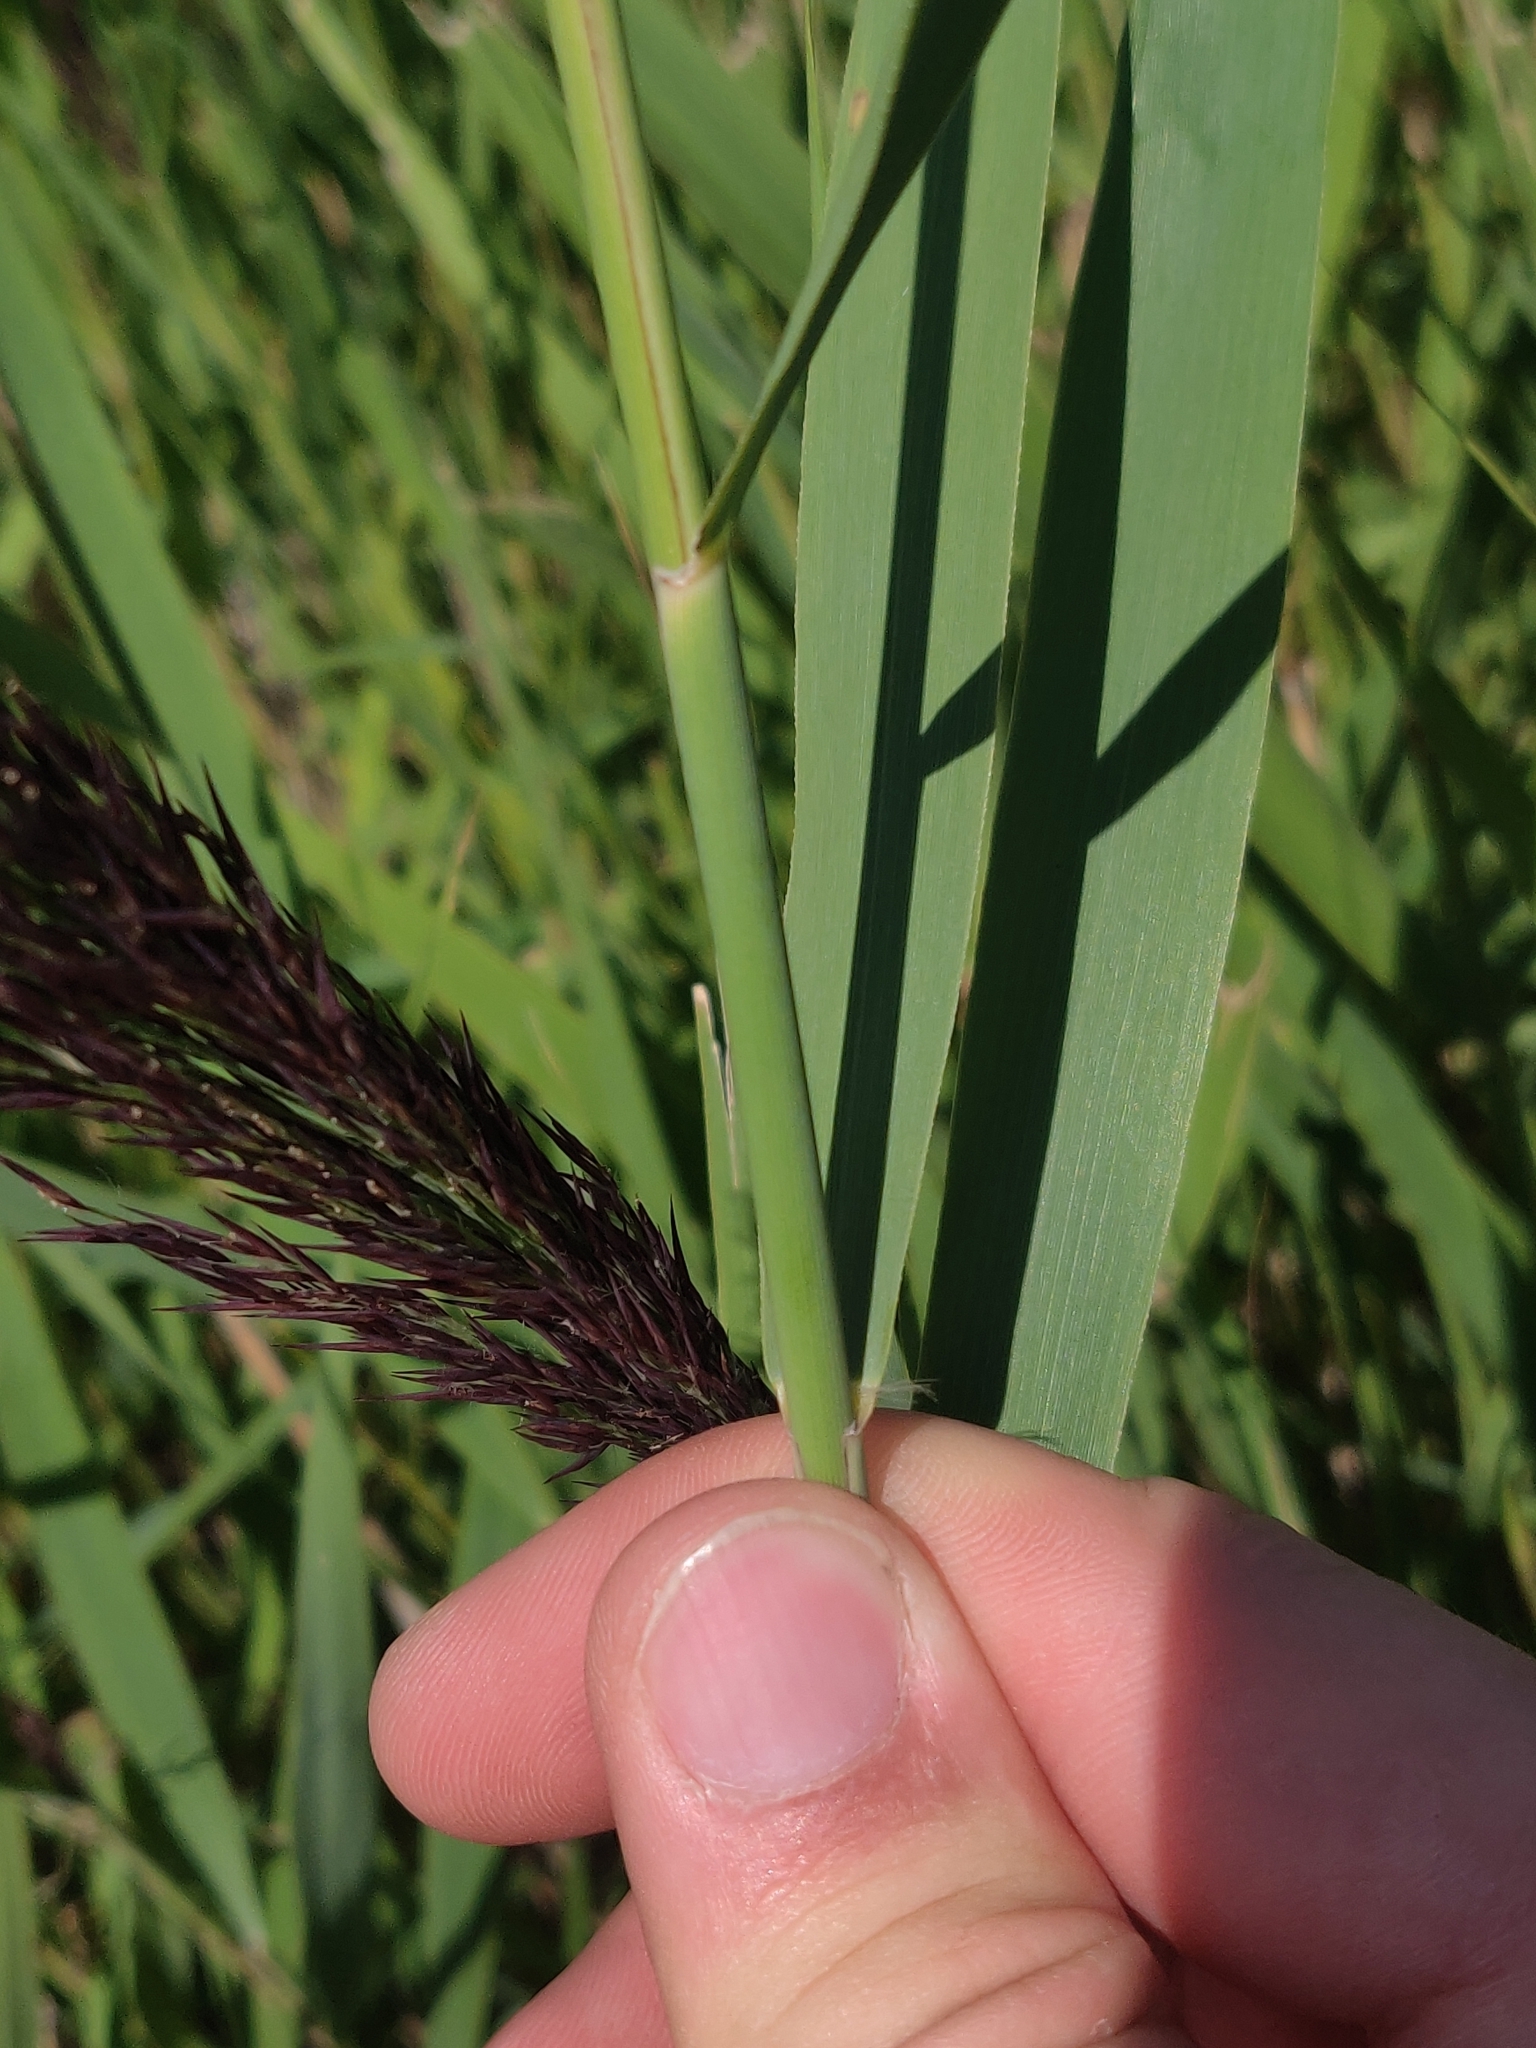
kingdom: Plantae
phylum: Tracheophyta
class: Liliopsida
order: Poales
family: Poaceae
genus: Phragmites
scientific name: Phragmites australis
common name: Common reed
